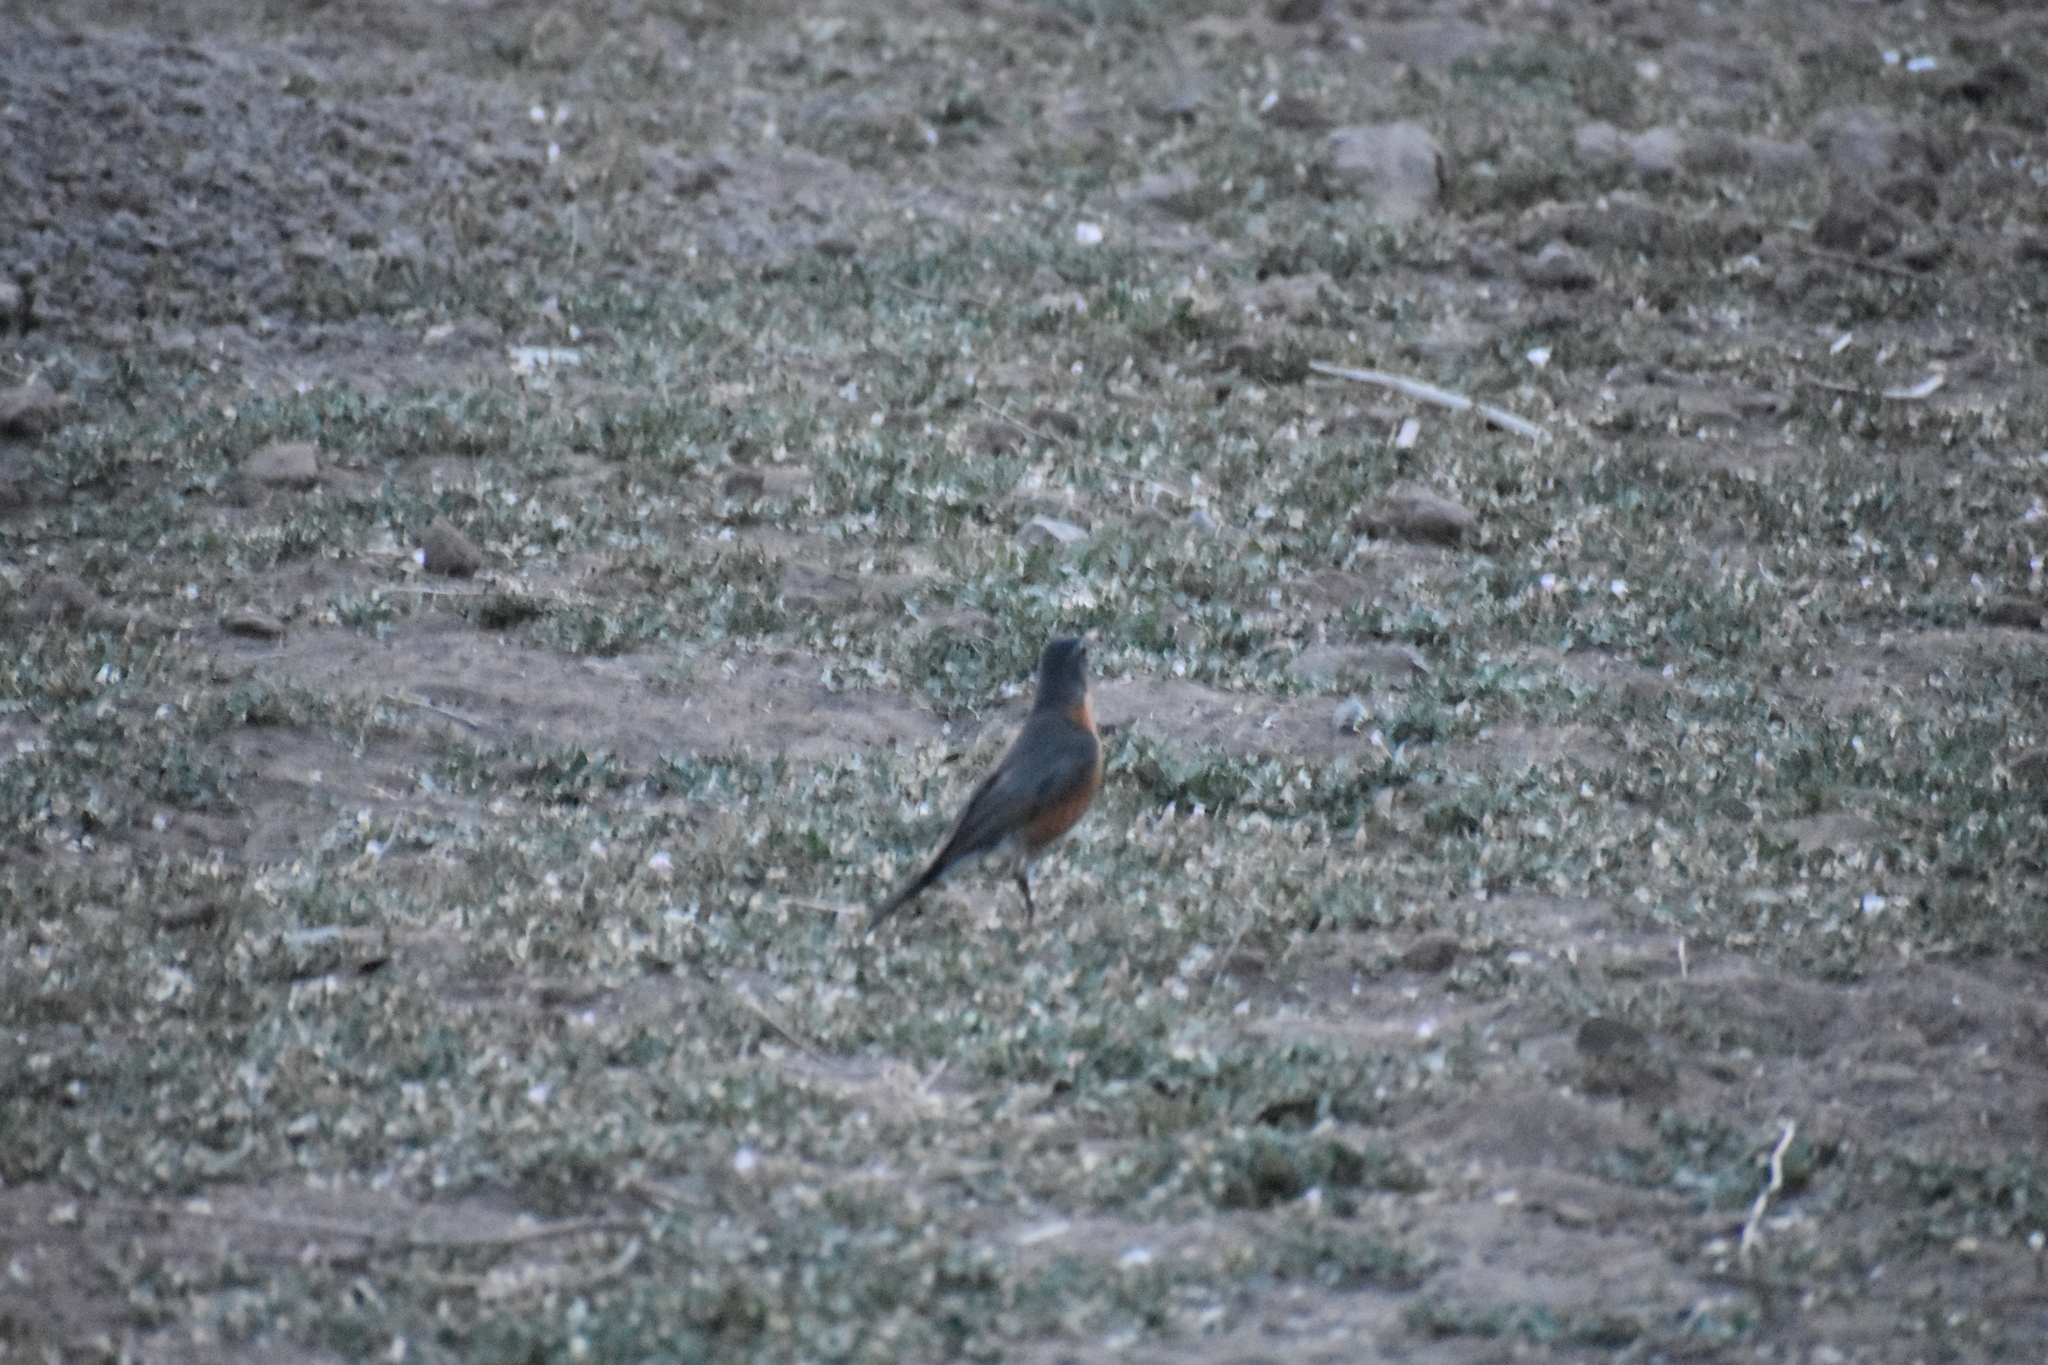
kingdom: Animalia
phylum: Chordata
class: Aves
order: Passeriformes
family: Turdidae
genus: Turdus
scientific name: Turdus migratorius
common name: American robin
